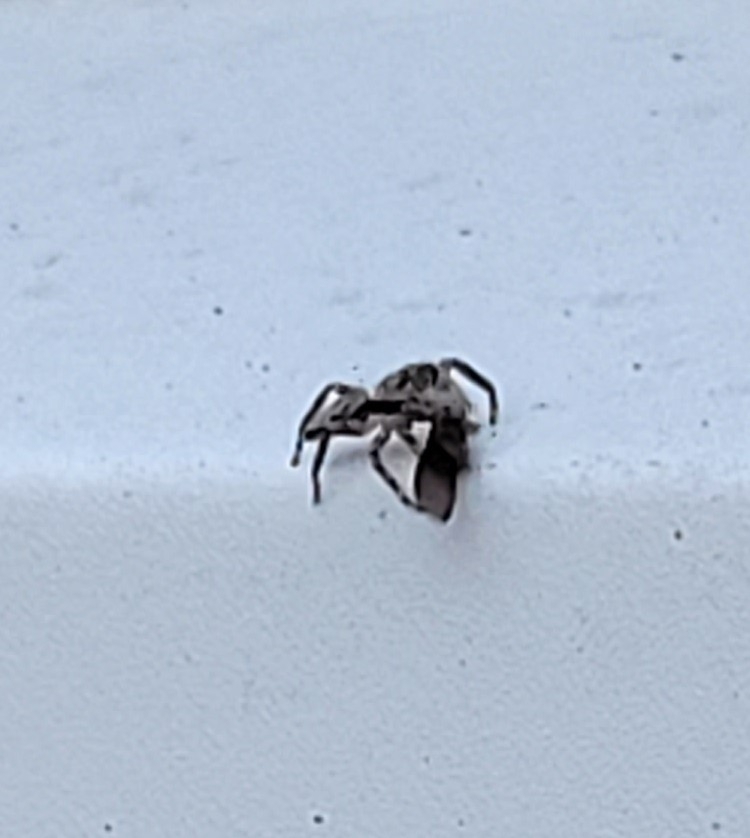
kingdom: Animalia
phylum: Arthropoda
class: Arachnida
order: Araneae
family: Salticidae
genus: Platycryptus
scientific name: Platycryptus undatus
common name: Tan jumping spider
